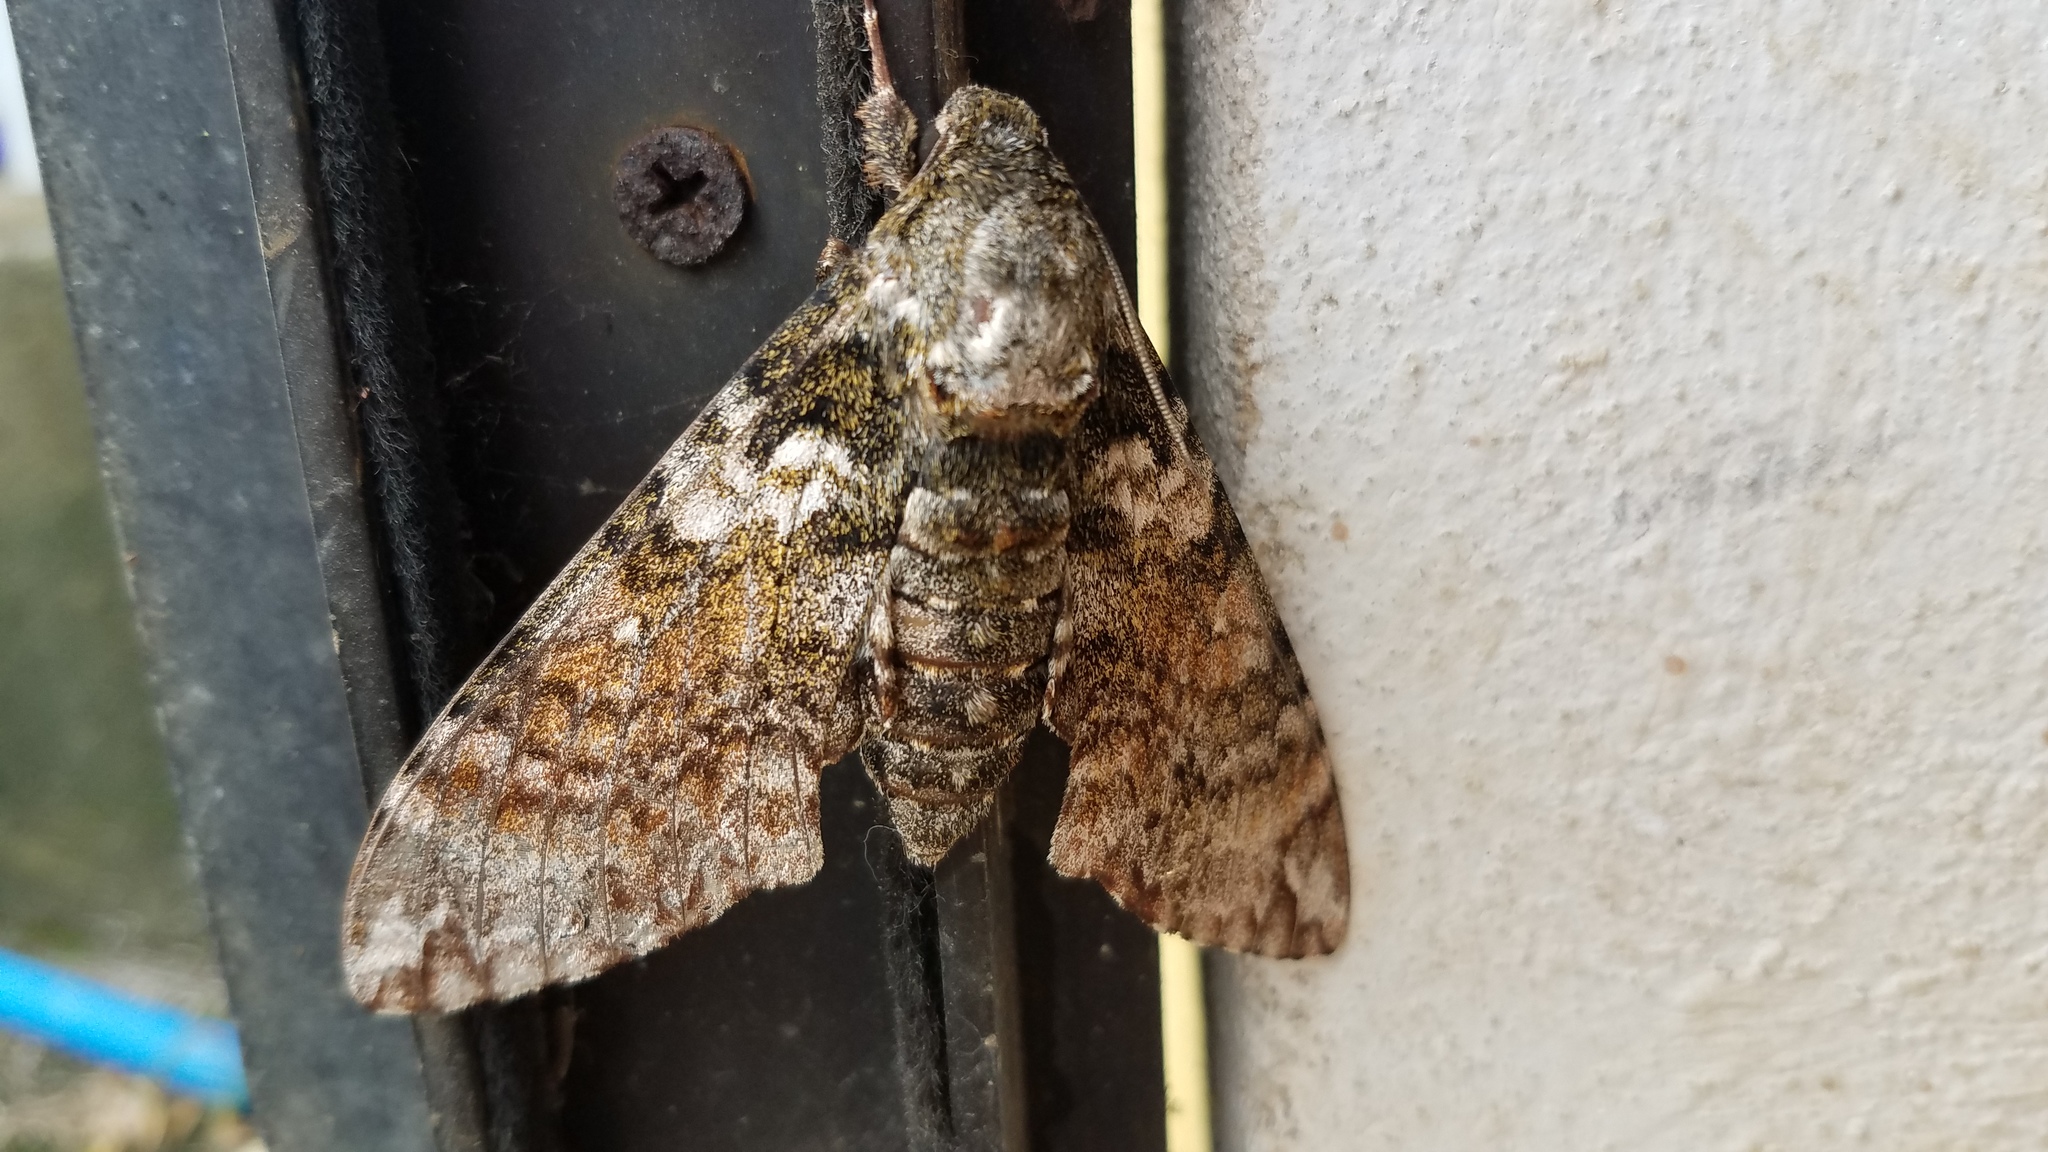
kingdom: Animalia
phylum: Arthropoda
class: Insecta
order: Lepidoptera
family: Sphingidae
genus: Manduca
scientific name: Manduca schausi
